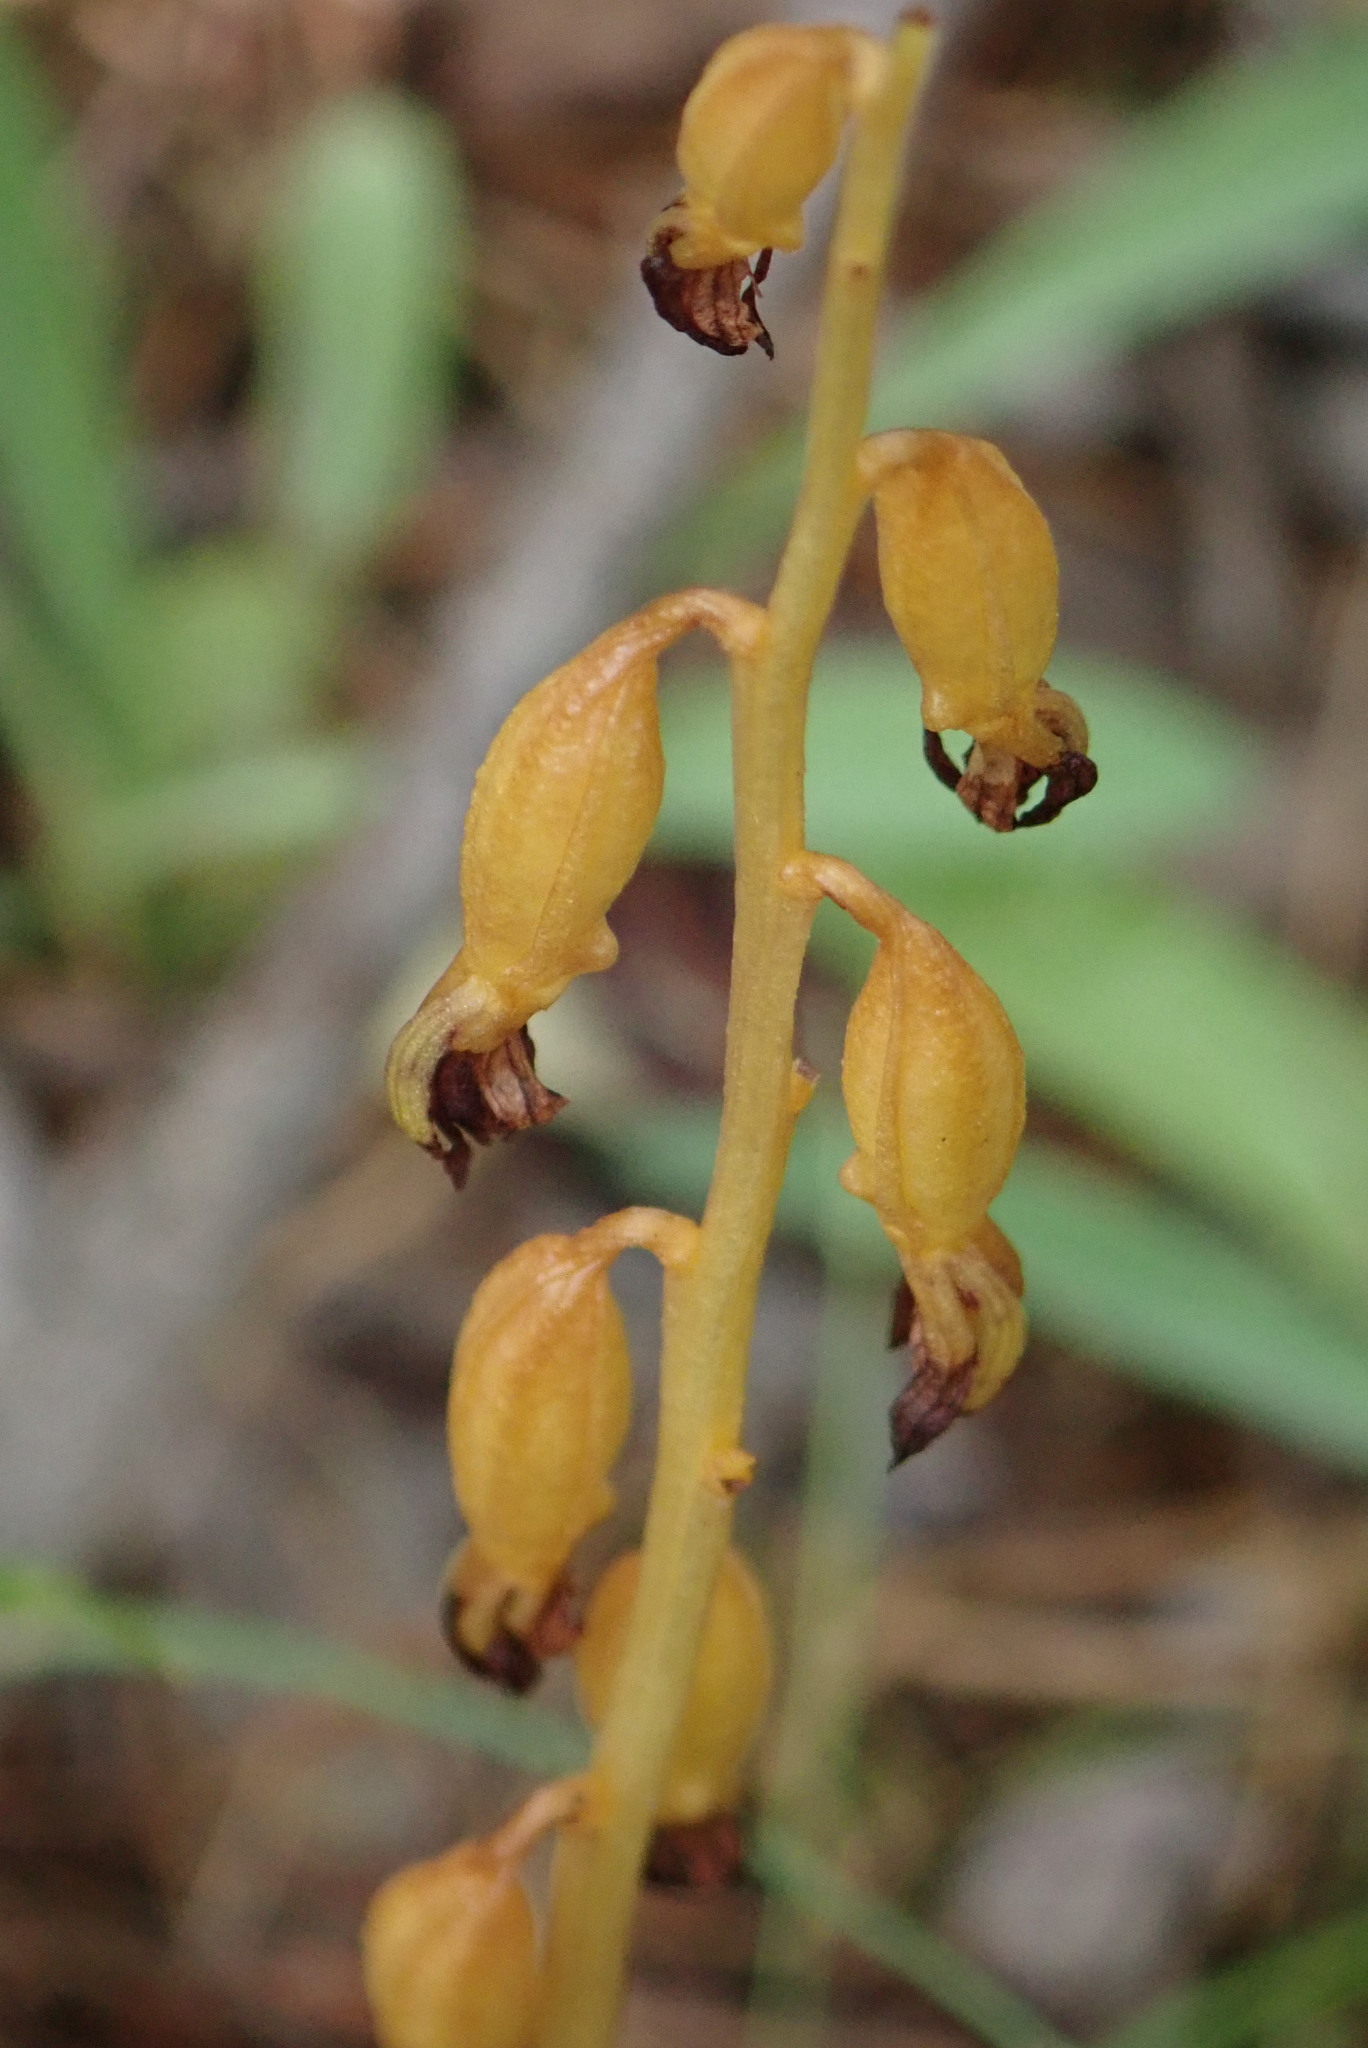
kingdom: Plantae
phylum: Tracheophyta
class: Liliopsida
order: Asparagales
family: Orchidaceae
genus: Corallorhiza
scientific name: Corallorhiza maculata
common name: Spotted coralroot
